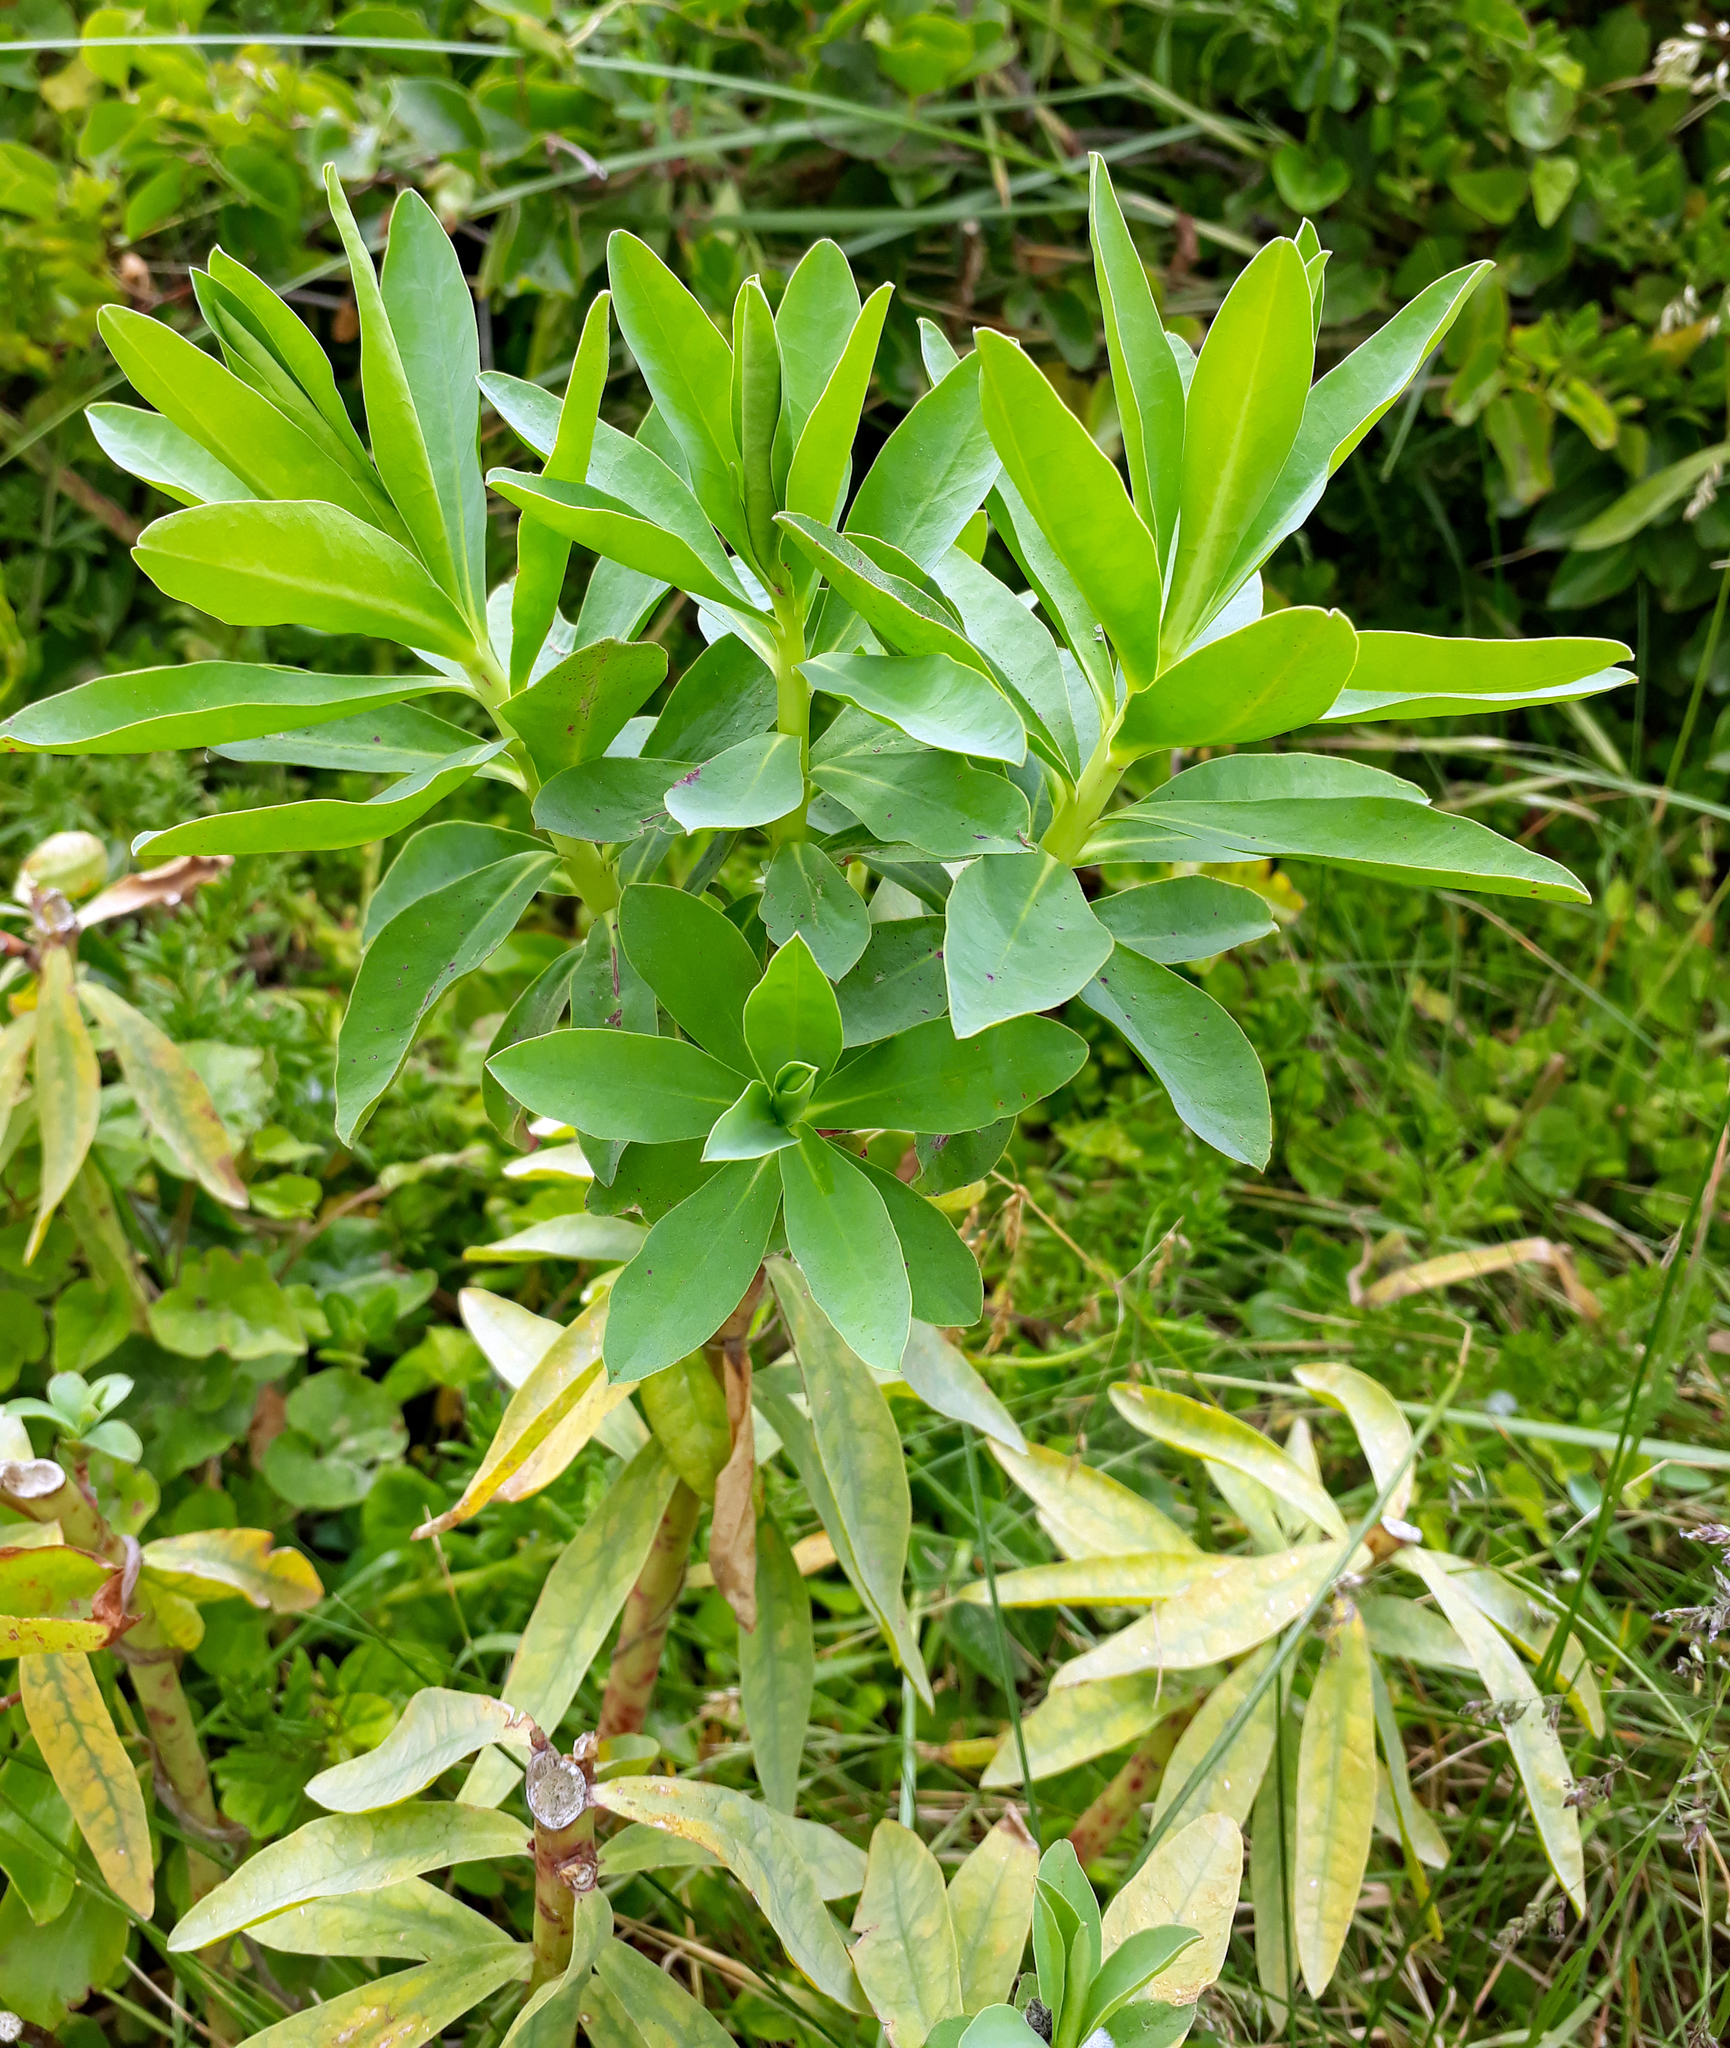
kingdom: Plantae
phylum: Tracheophyta
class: Magnoliopsida
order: Malpighiales
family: Euphorbiaceae
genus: Euphorbia
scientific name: Euphorbia glauca
